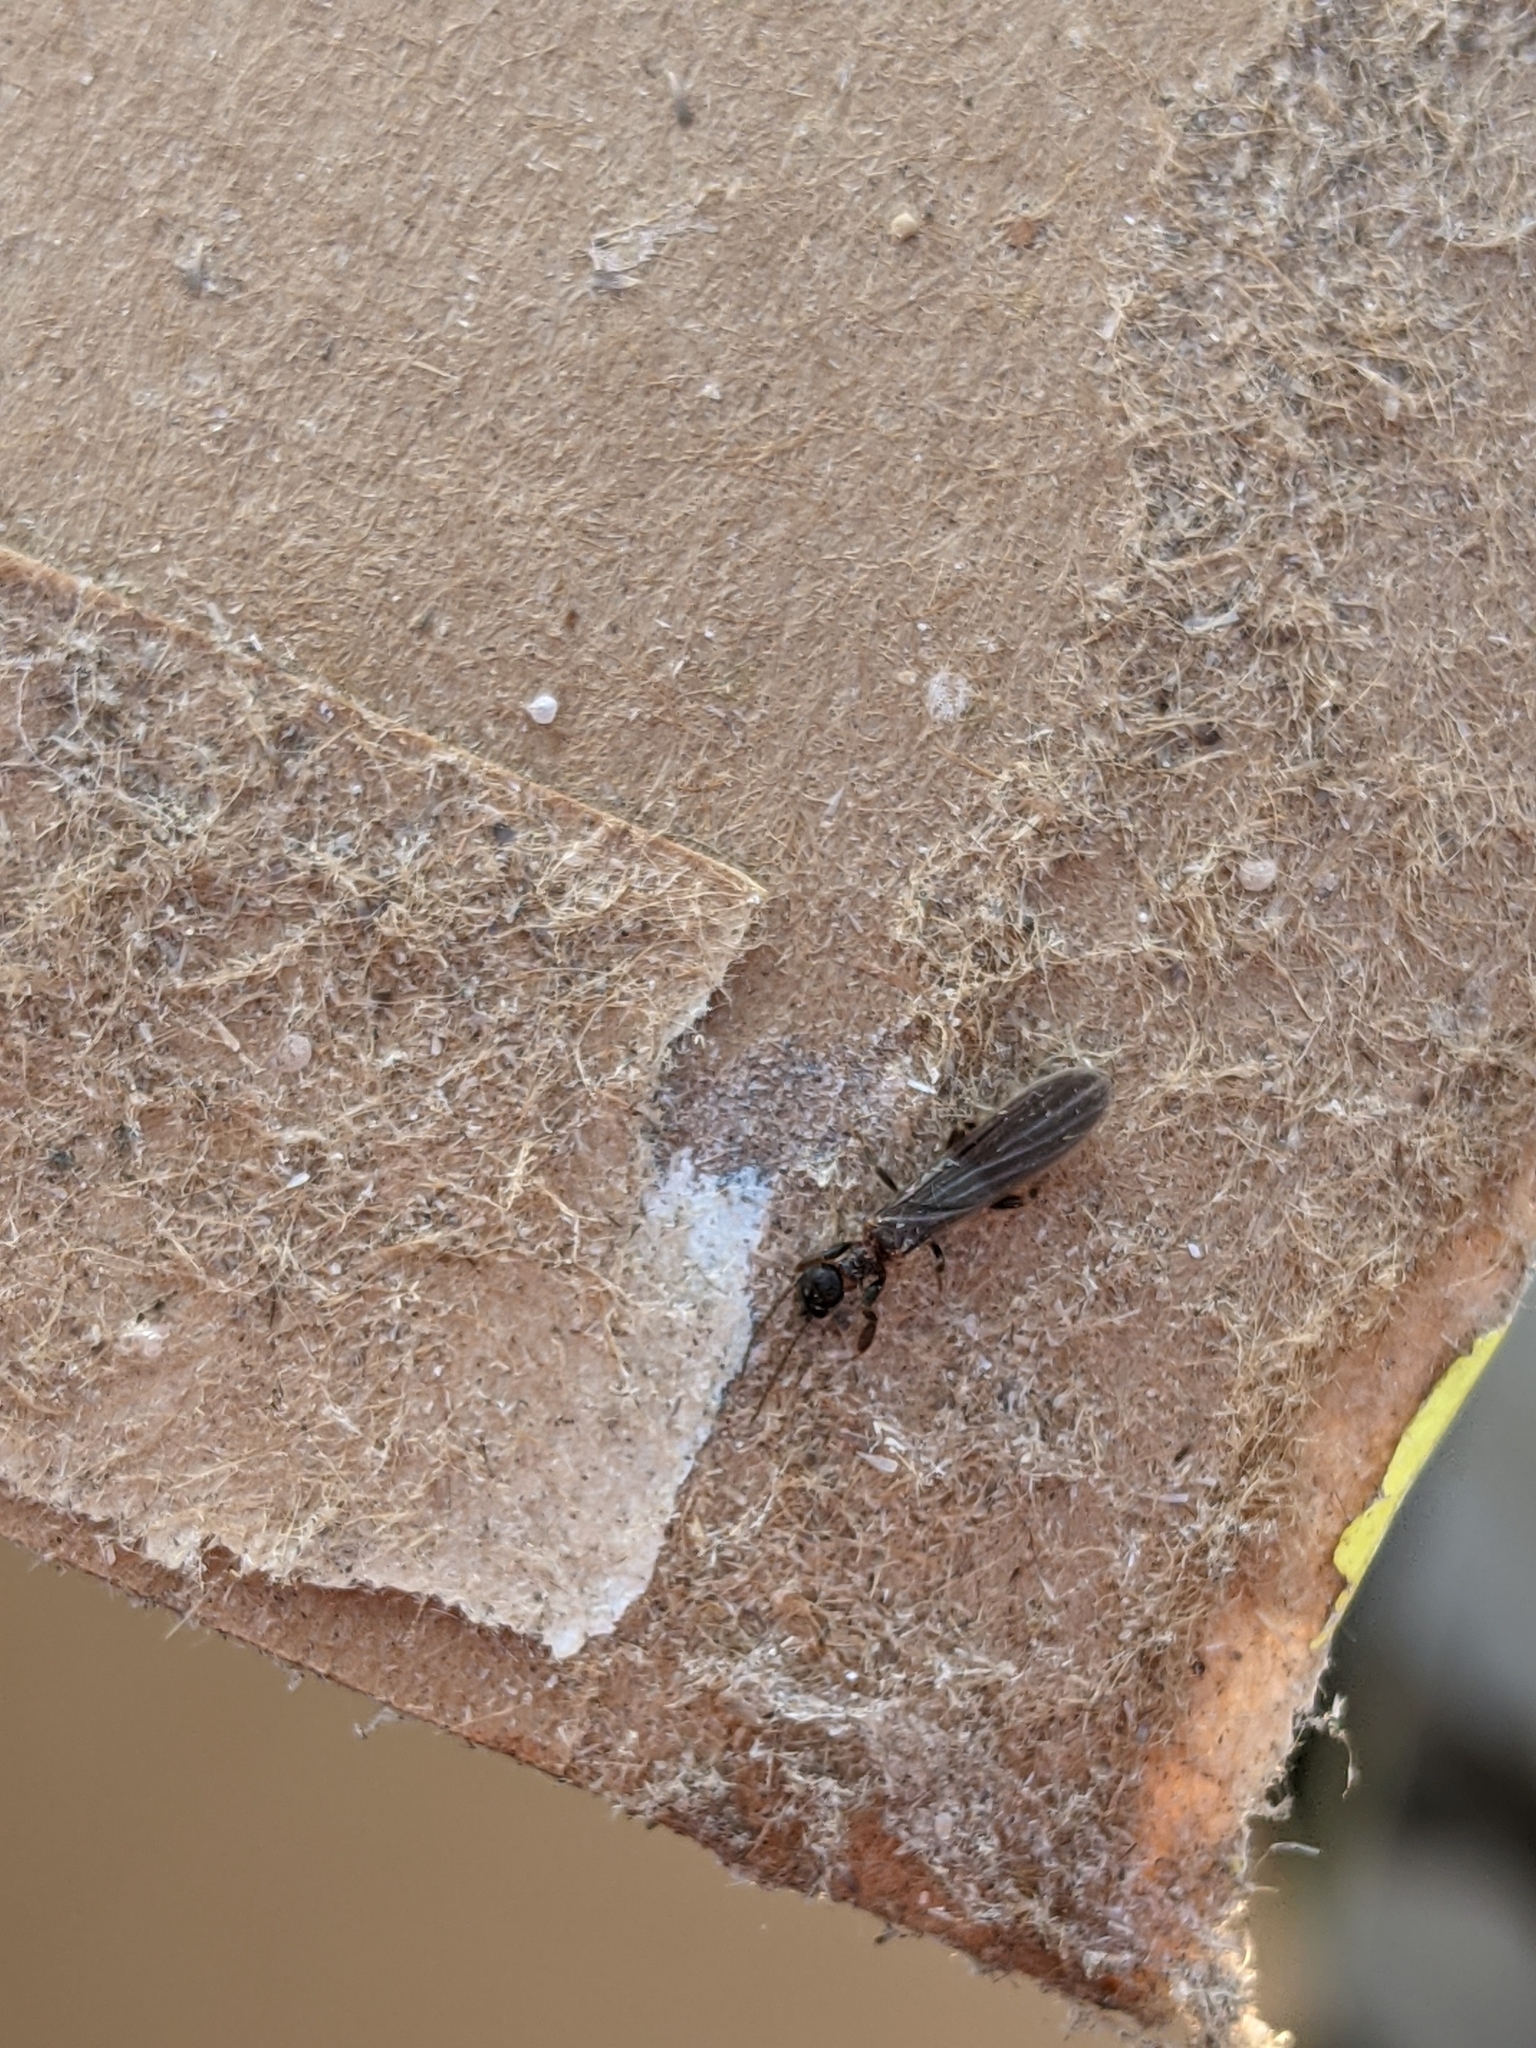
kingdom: Animalia
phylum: Arthropoda
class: Insecta
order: Embioptera
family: Oligotomidae
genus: Oligotoma
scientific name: Oligotoma nigra
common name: Black webspinner
